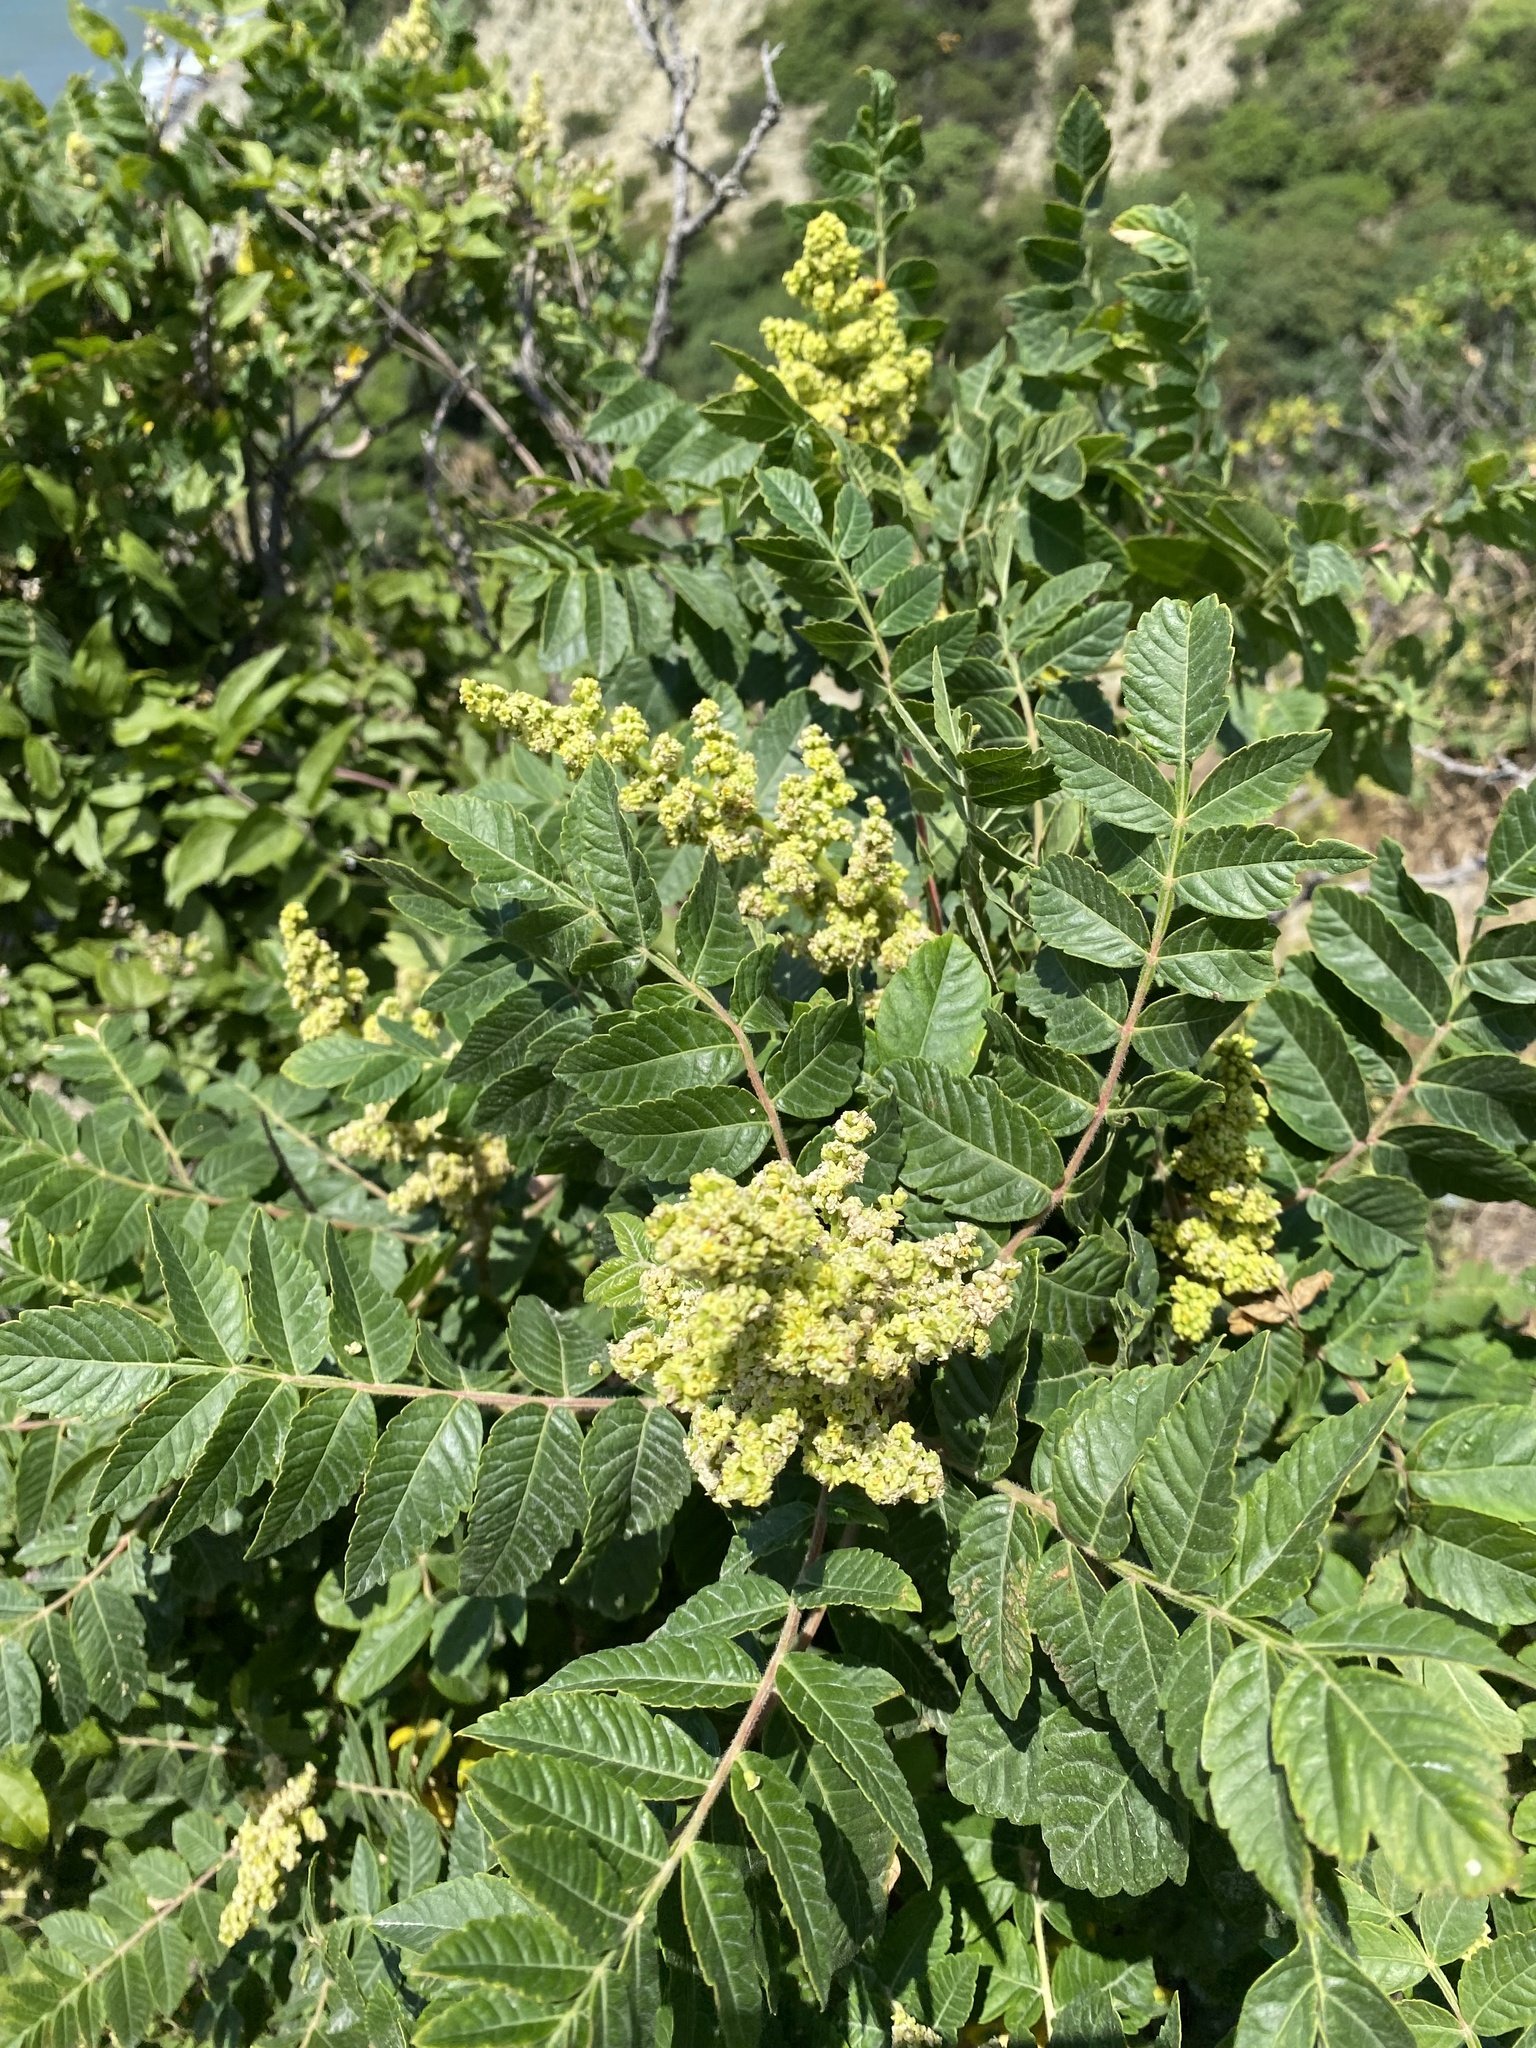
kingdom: Plantae
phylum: Tracheophyta
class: Magnoliopsida
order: Sapindales
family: Anacardiaceae
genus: Rhus
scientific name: Rhus coriaria
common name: Tanner's sumach
